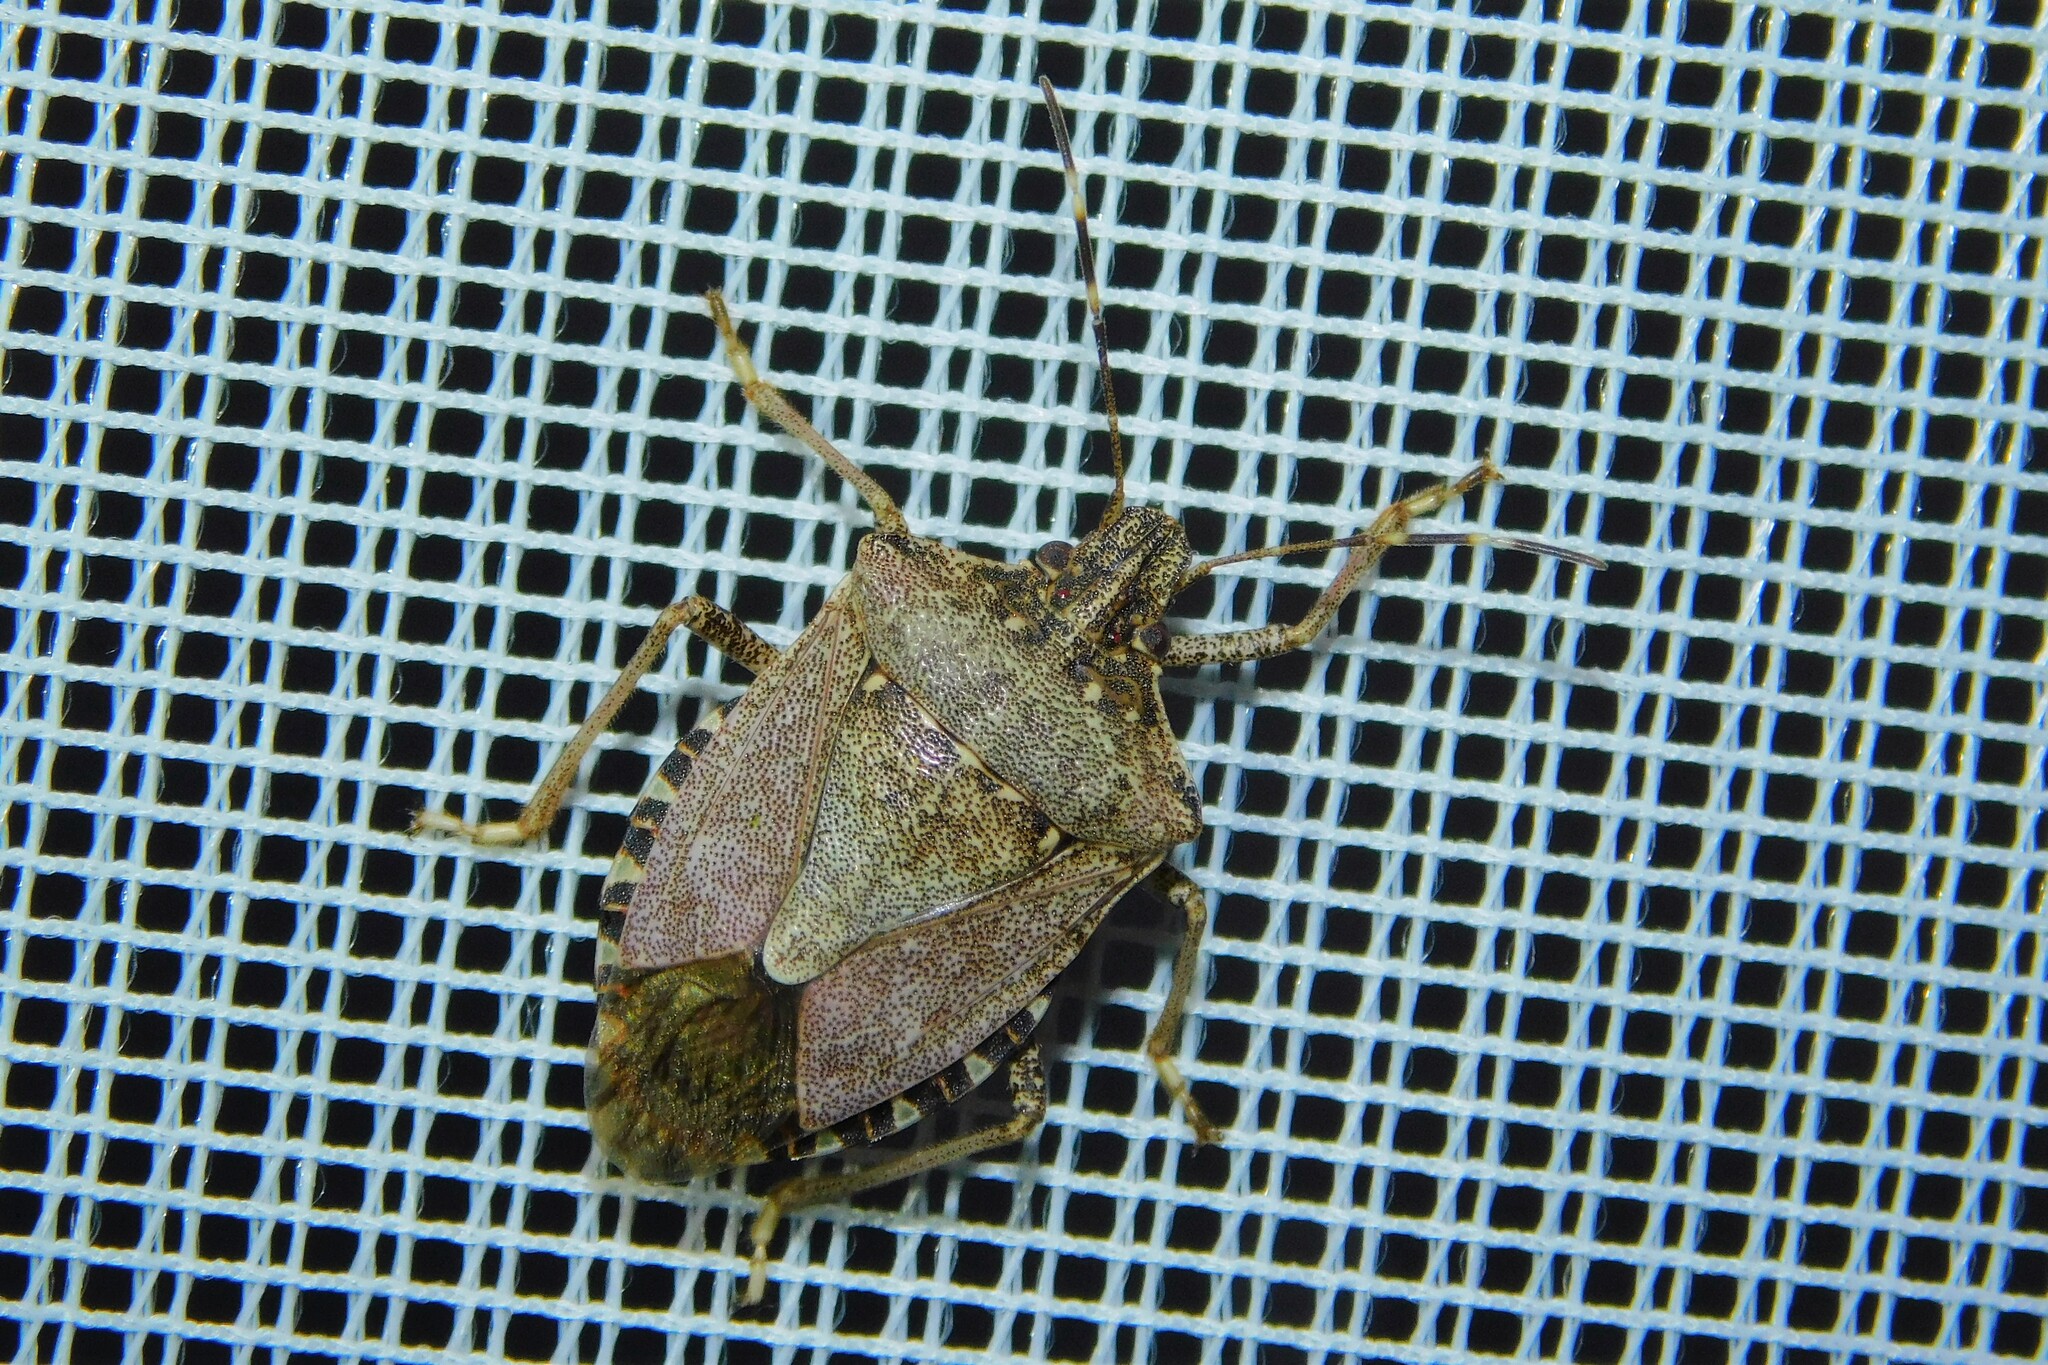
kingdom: Animalia
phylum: Arthropoda
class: Insecta
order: Hemiptera
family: Pentatomidae
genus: Halyomorpha
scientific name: Halyomorpha halys
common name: Brown marmorated stink bug
